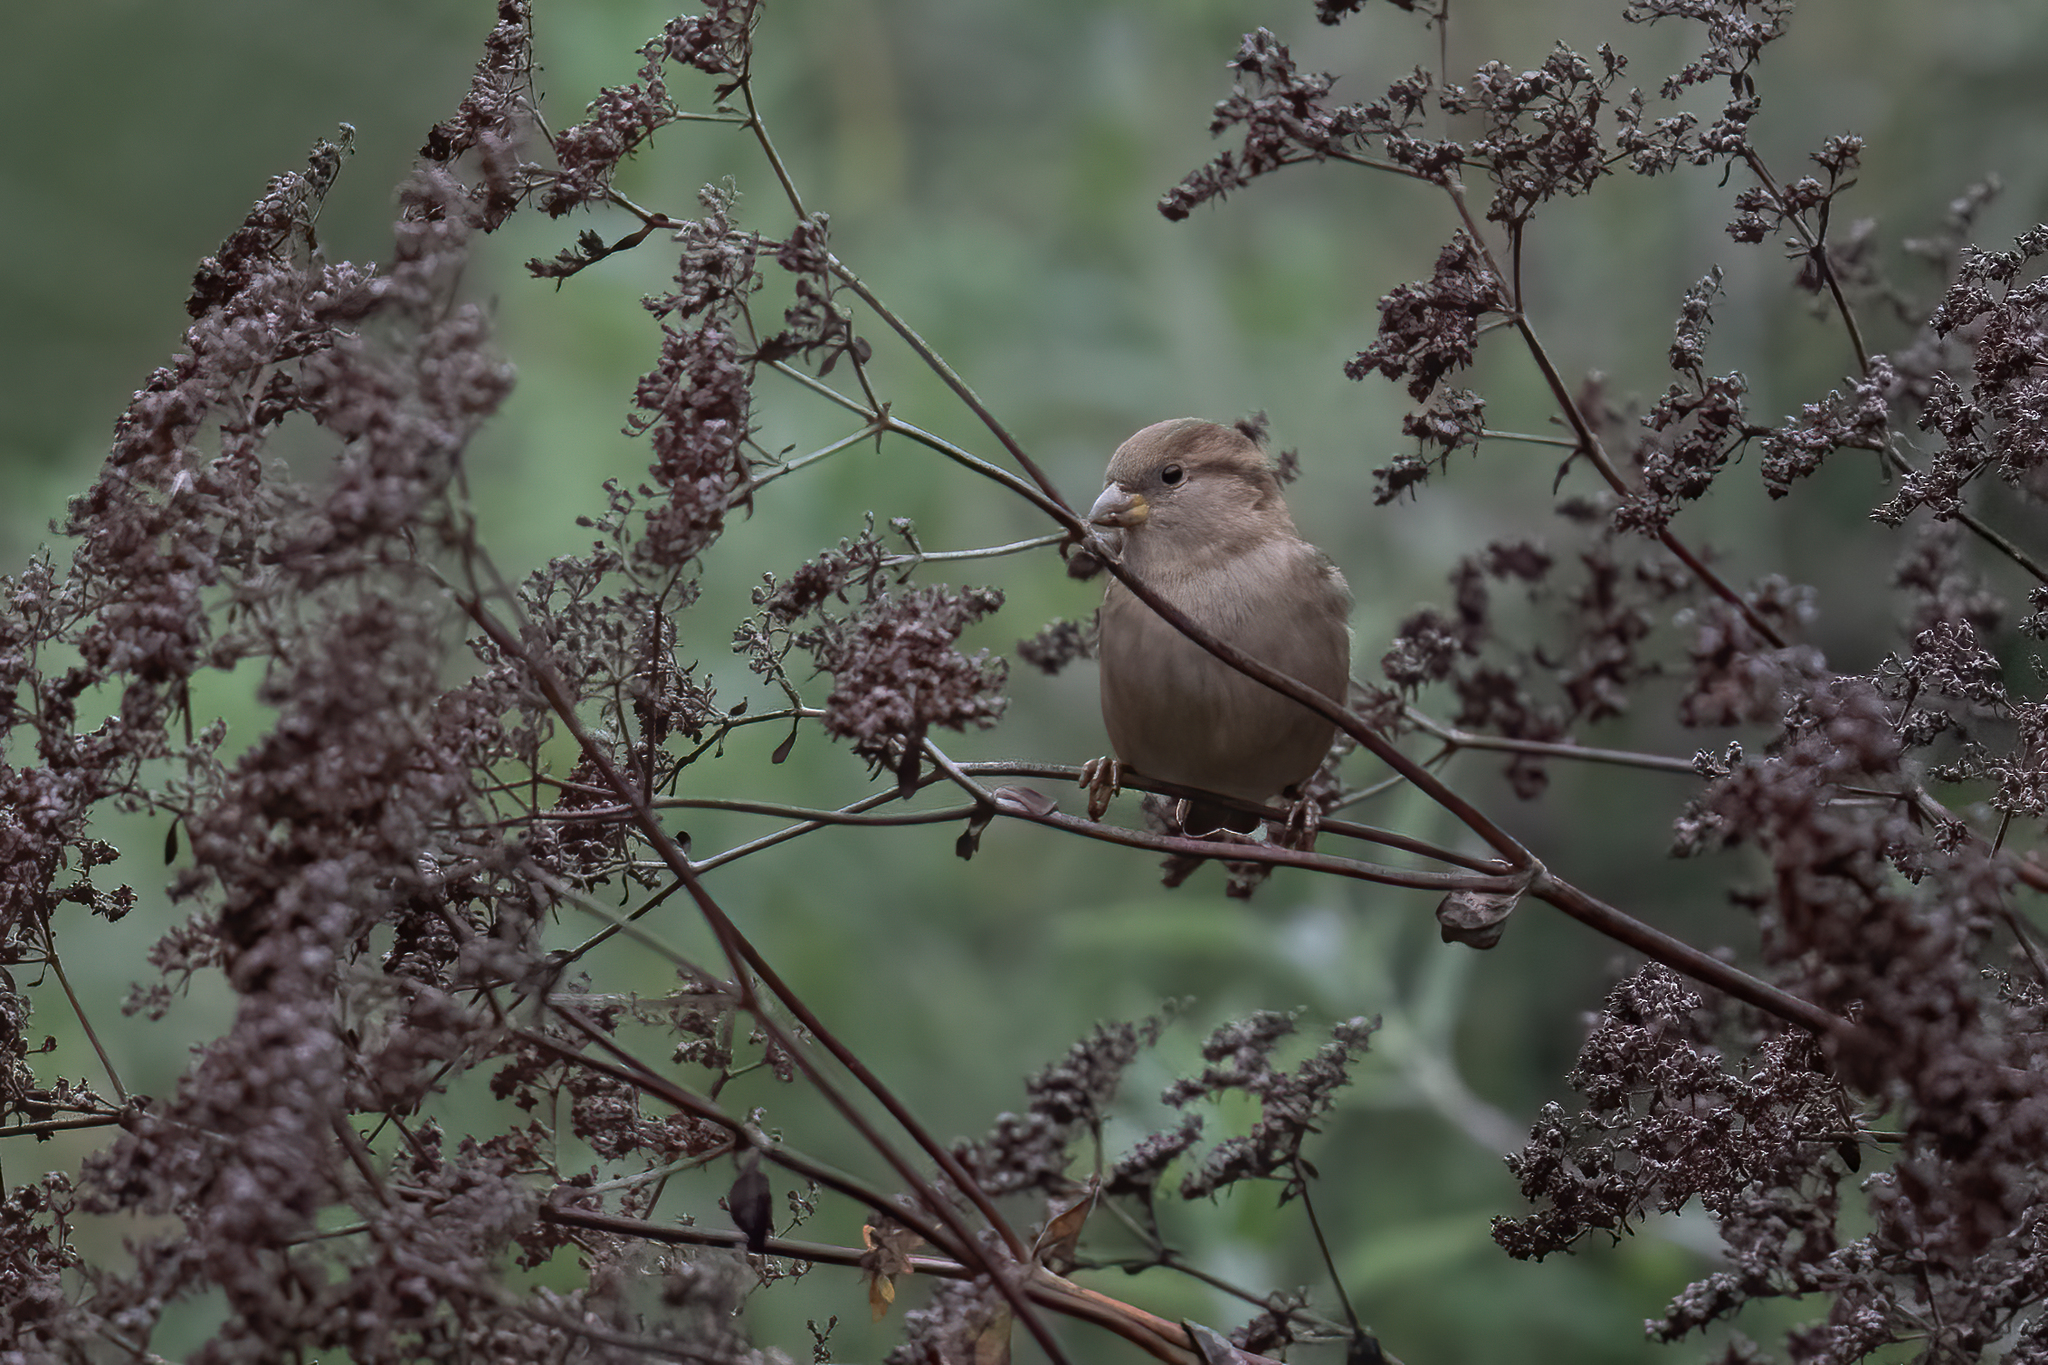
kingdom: Animalia
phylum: Chordata
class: Aves
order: Passeriformes
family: Passeridae
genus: Passer
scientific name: Passer domesticus
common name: House sparrow
